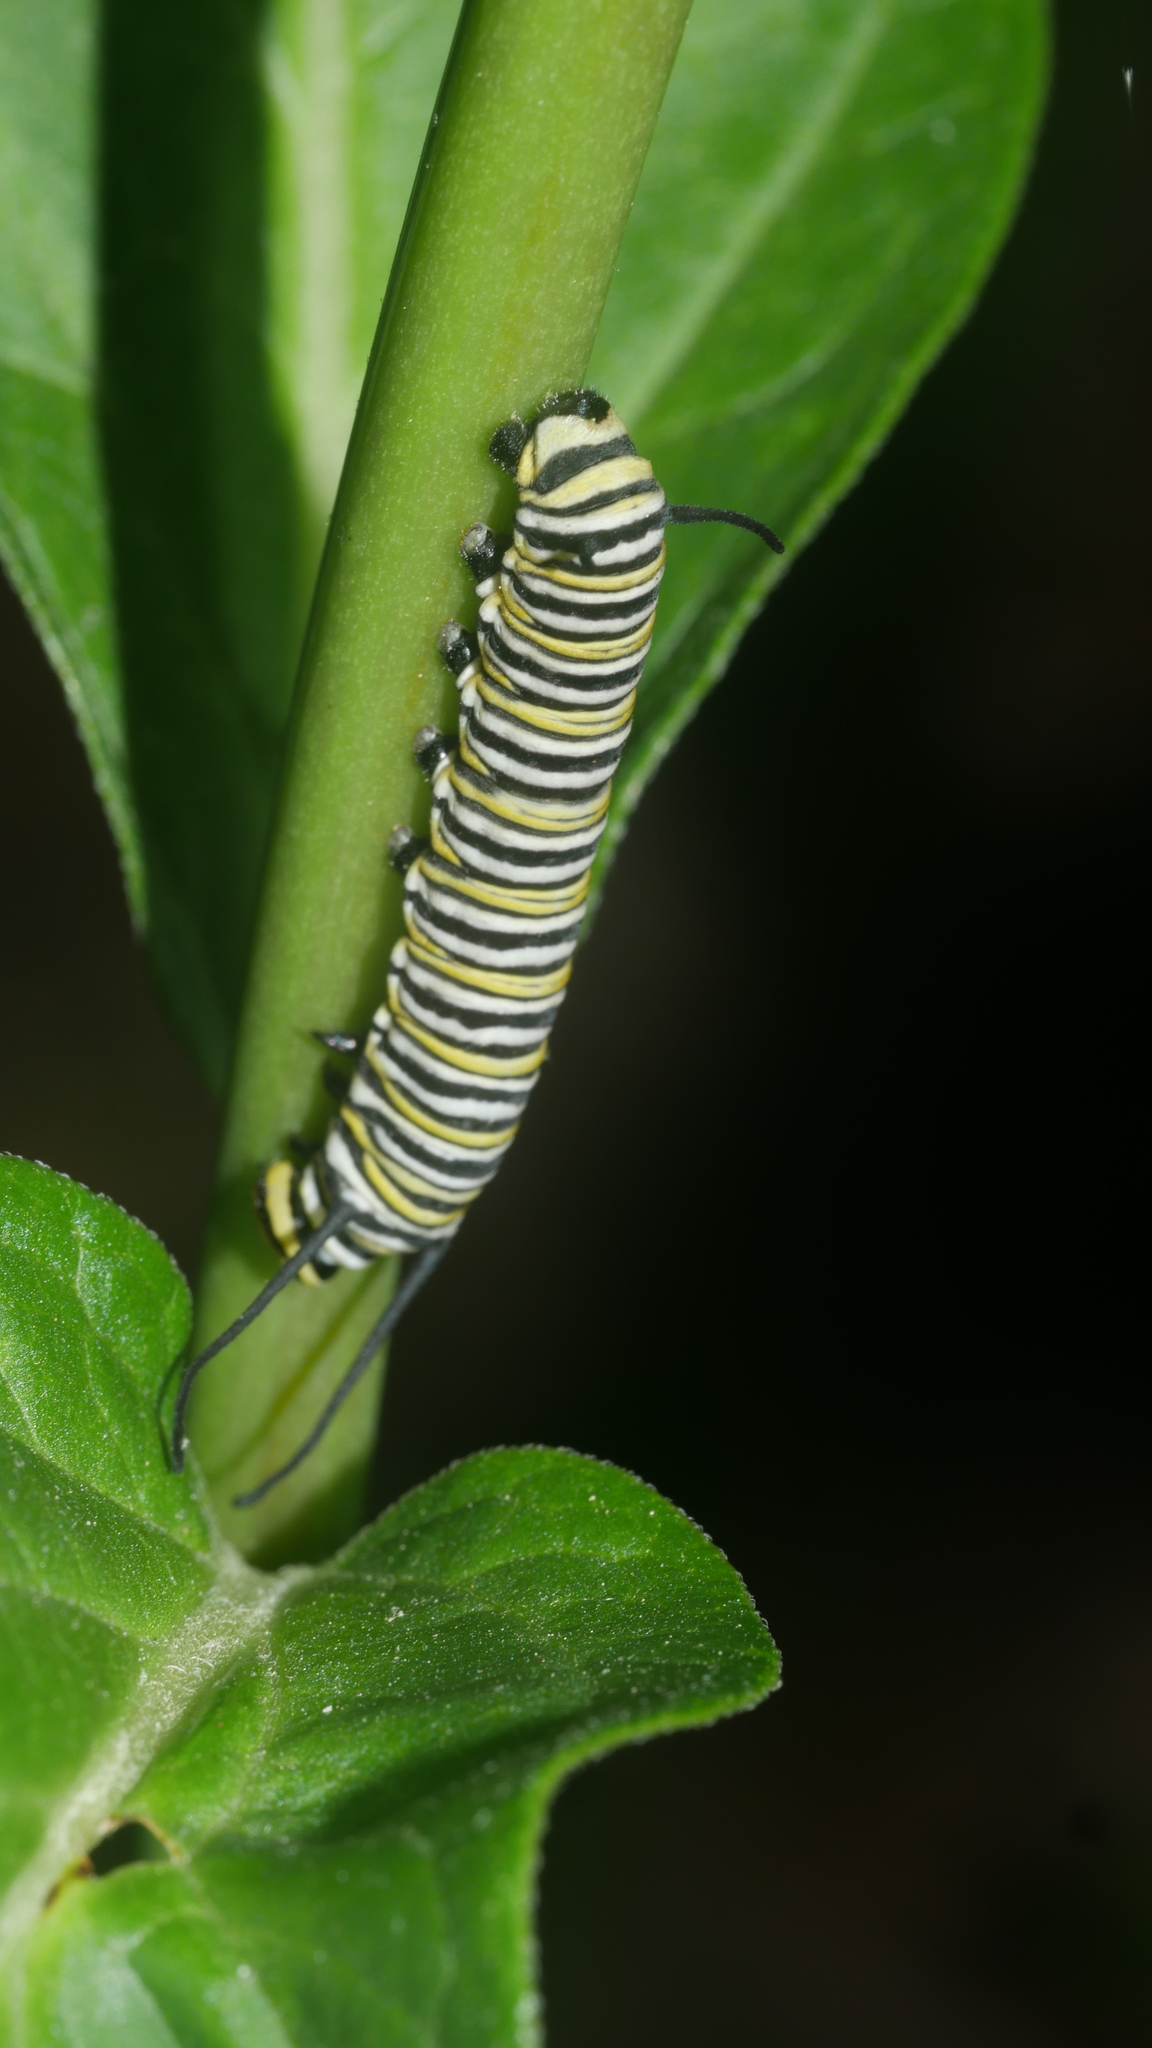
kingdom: Animalia
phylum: Arthropoda
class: Insecta
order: Lepidoptera
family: Nymphalidae
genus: Danaus
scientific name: Danaus plexippus
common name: Monarch
